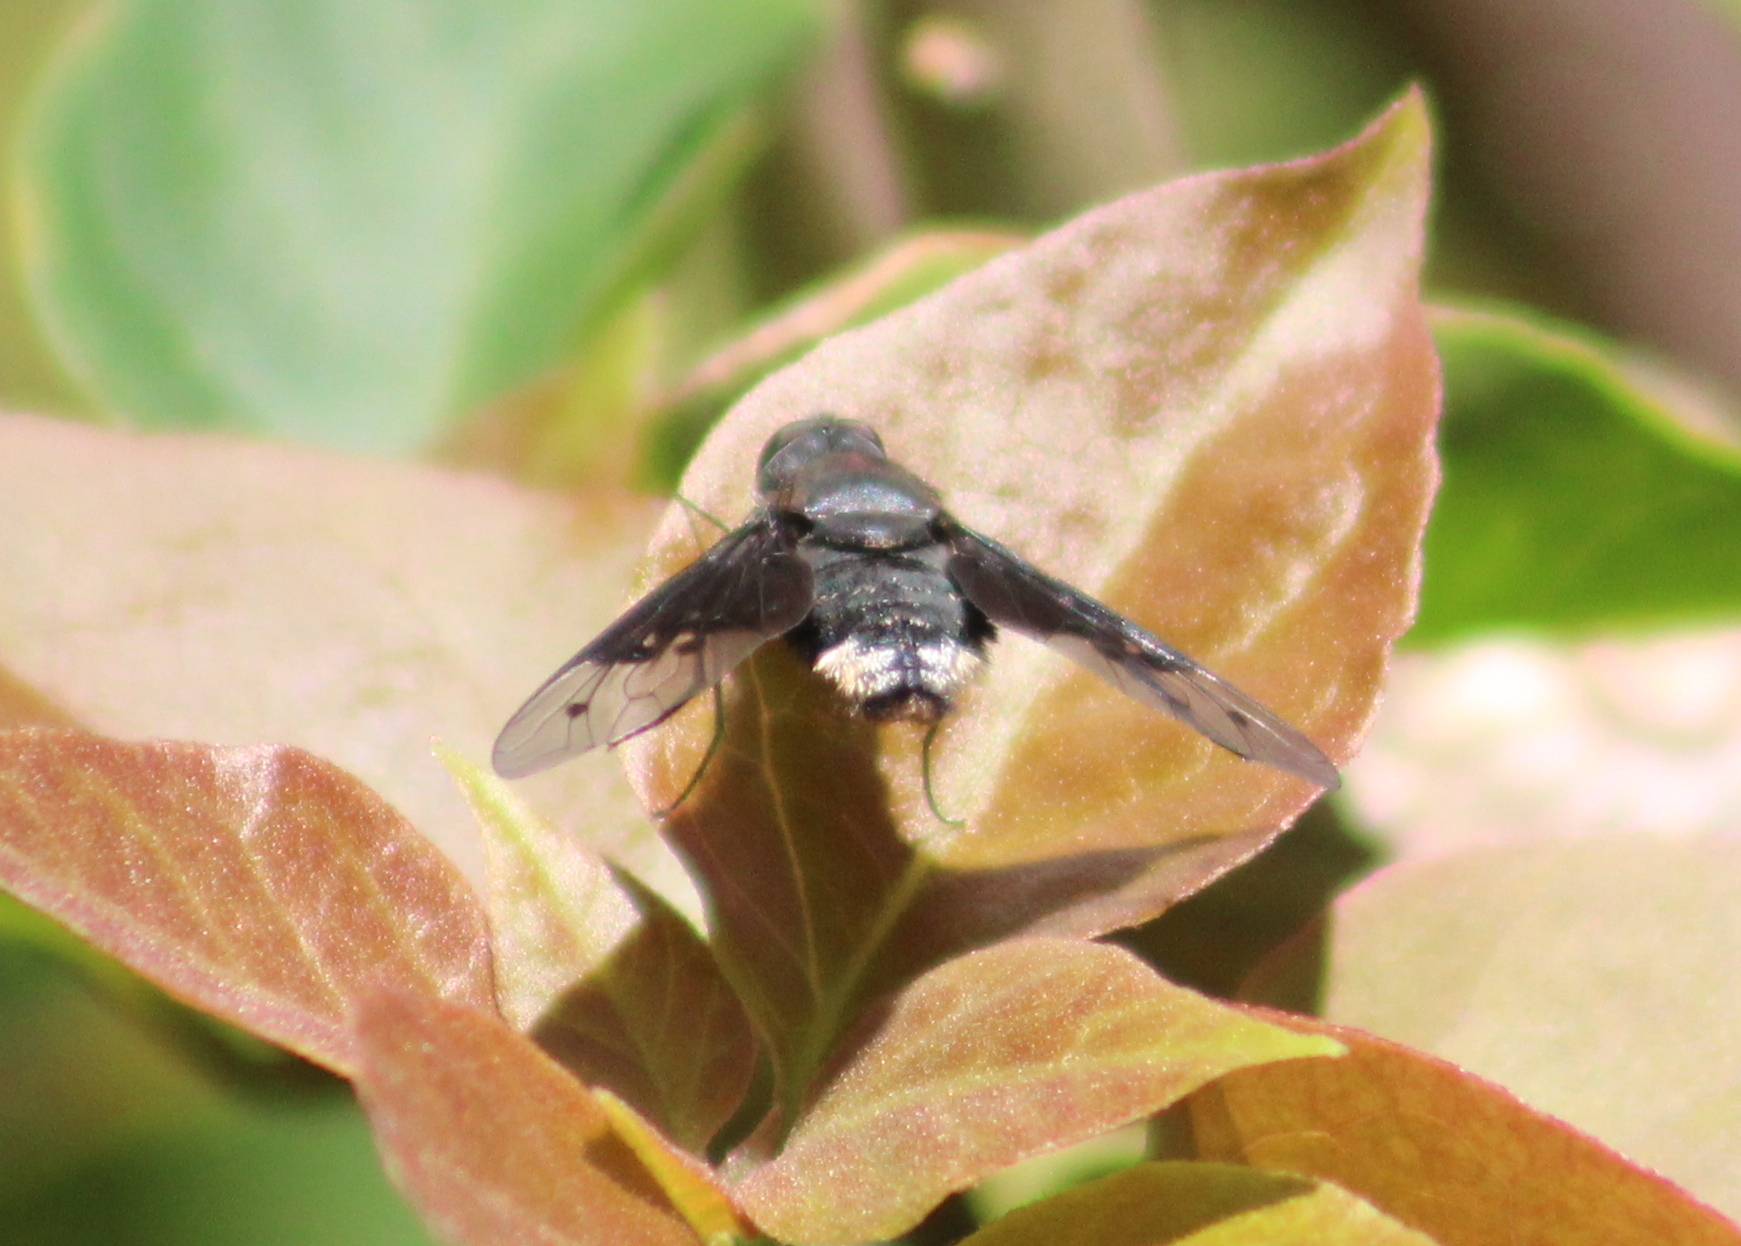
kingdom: Animalia
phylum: Arthropoda
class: Insecta
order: Diptera
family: Bombyliidae
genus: Anthrax
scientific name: Anthrax semiscitus
